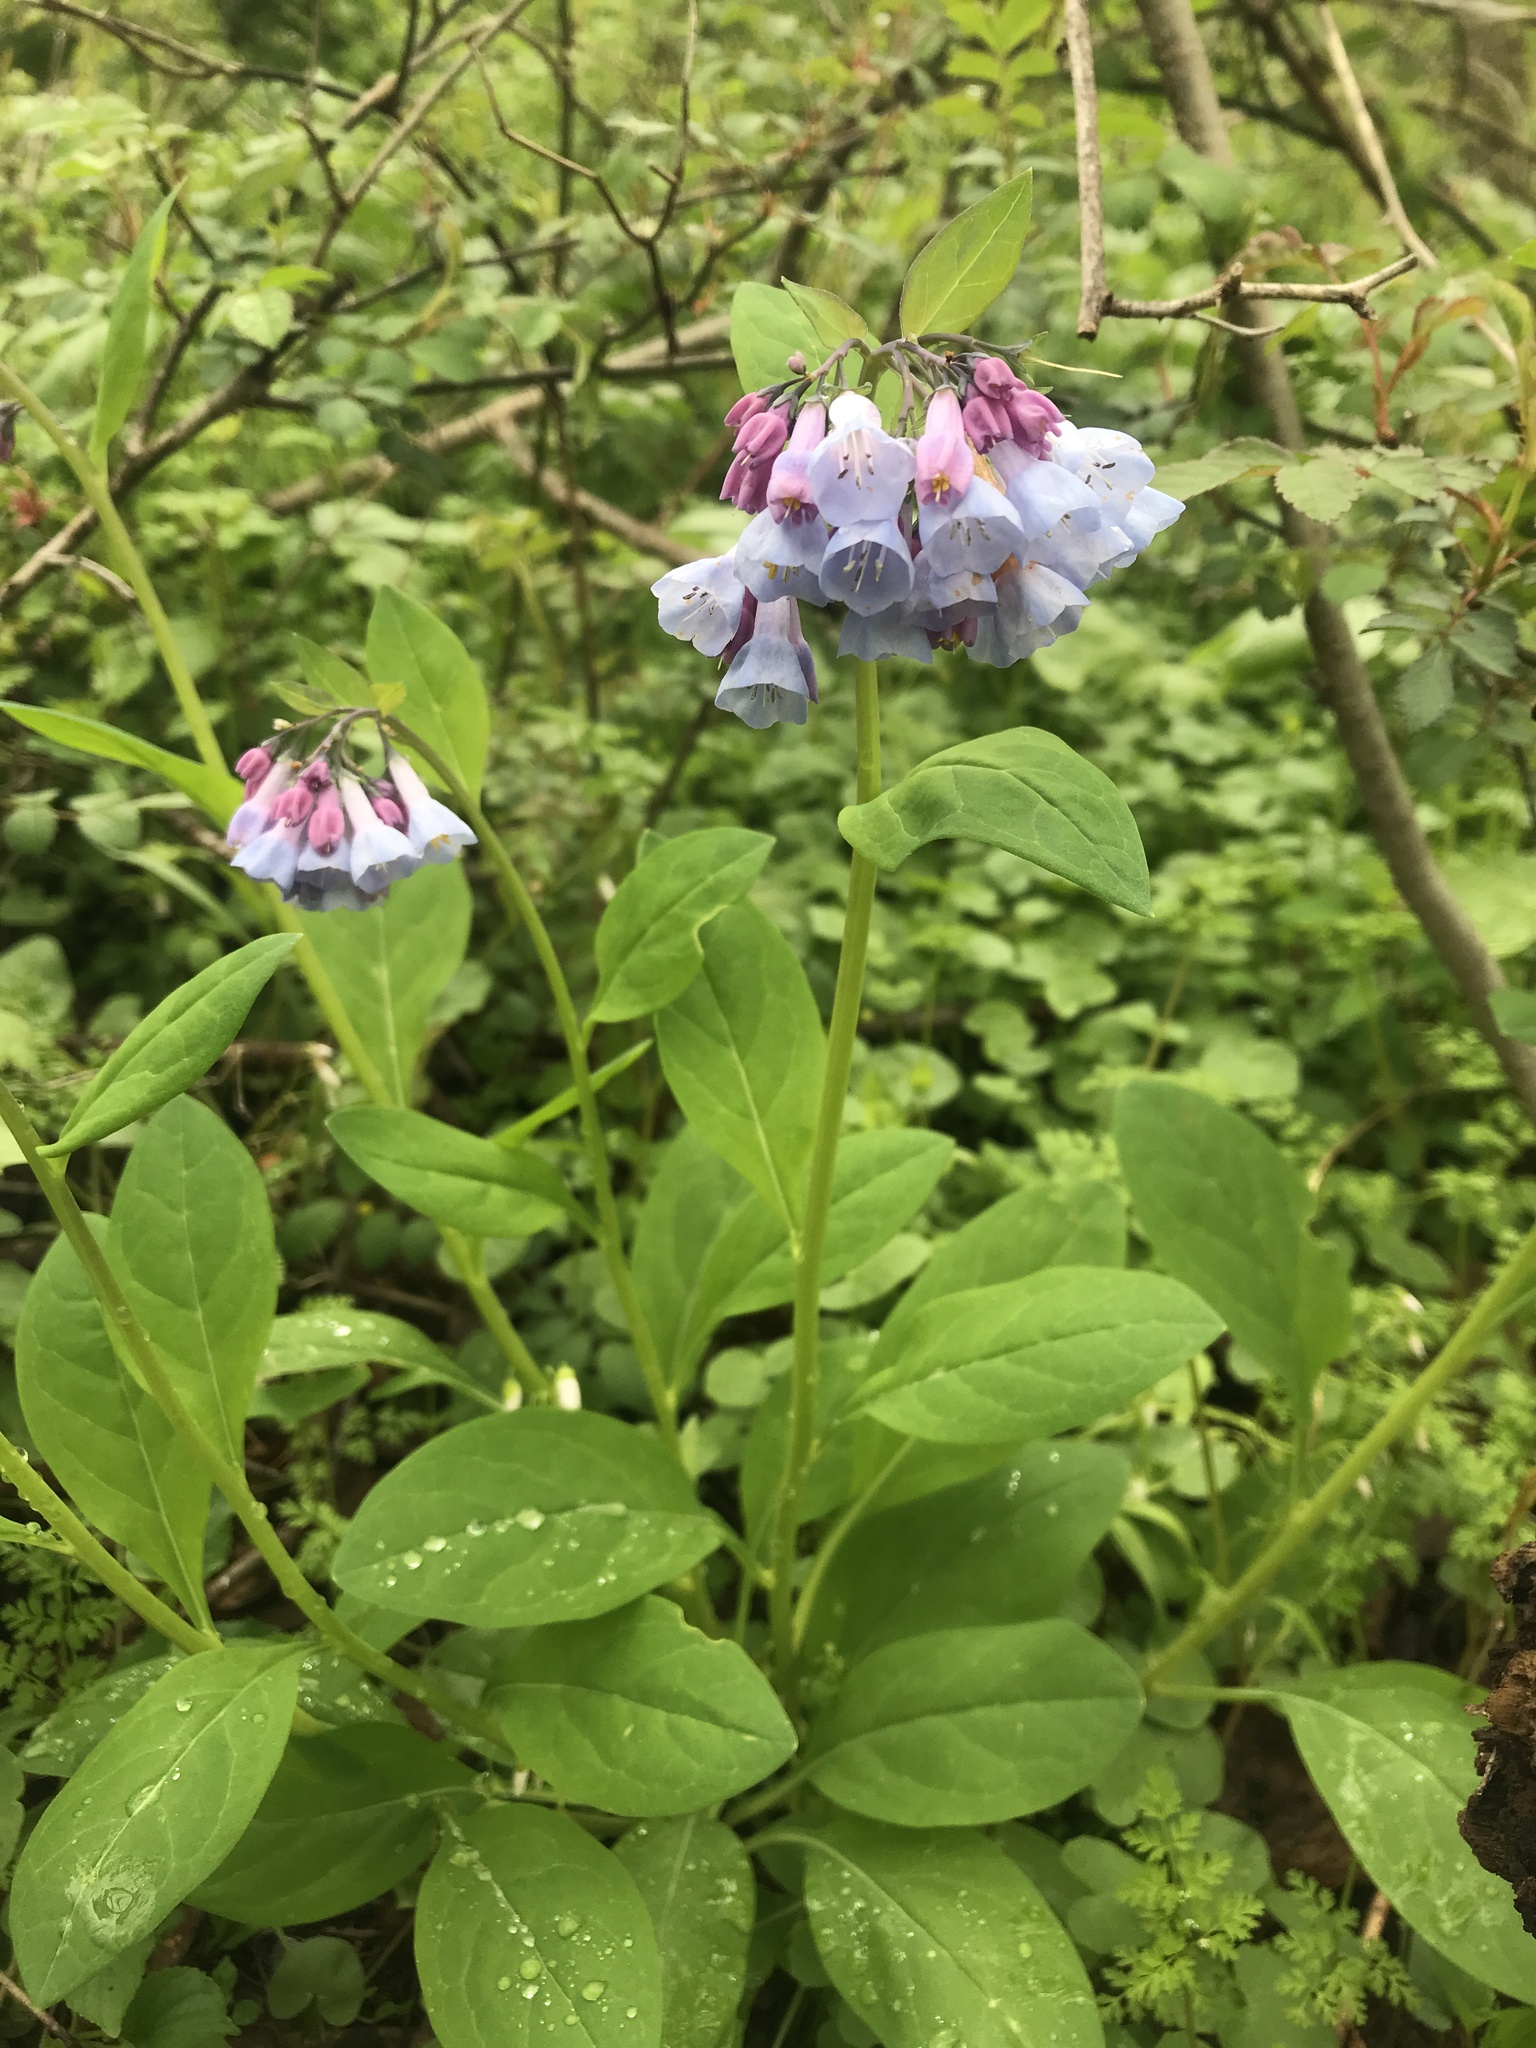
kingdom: Plantae
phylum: Tracheophyta
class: Magnoliopsida
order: Boraginales
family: Boraginaceae
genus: Mertensia
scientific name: Mertensia virginica
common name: Virginia bluebells
